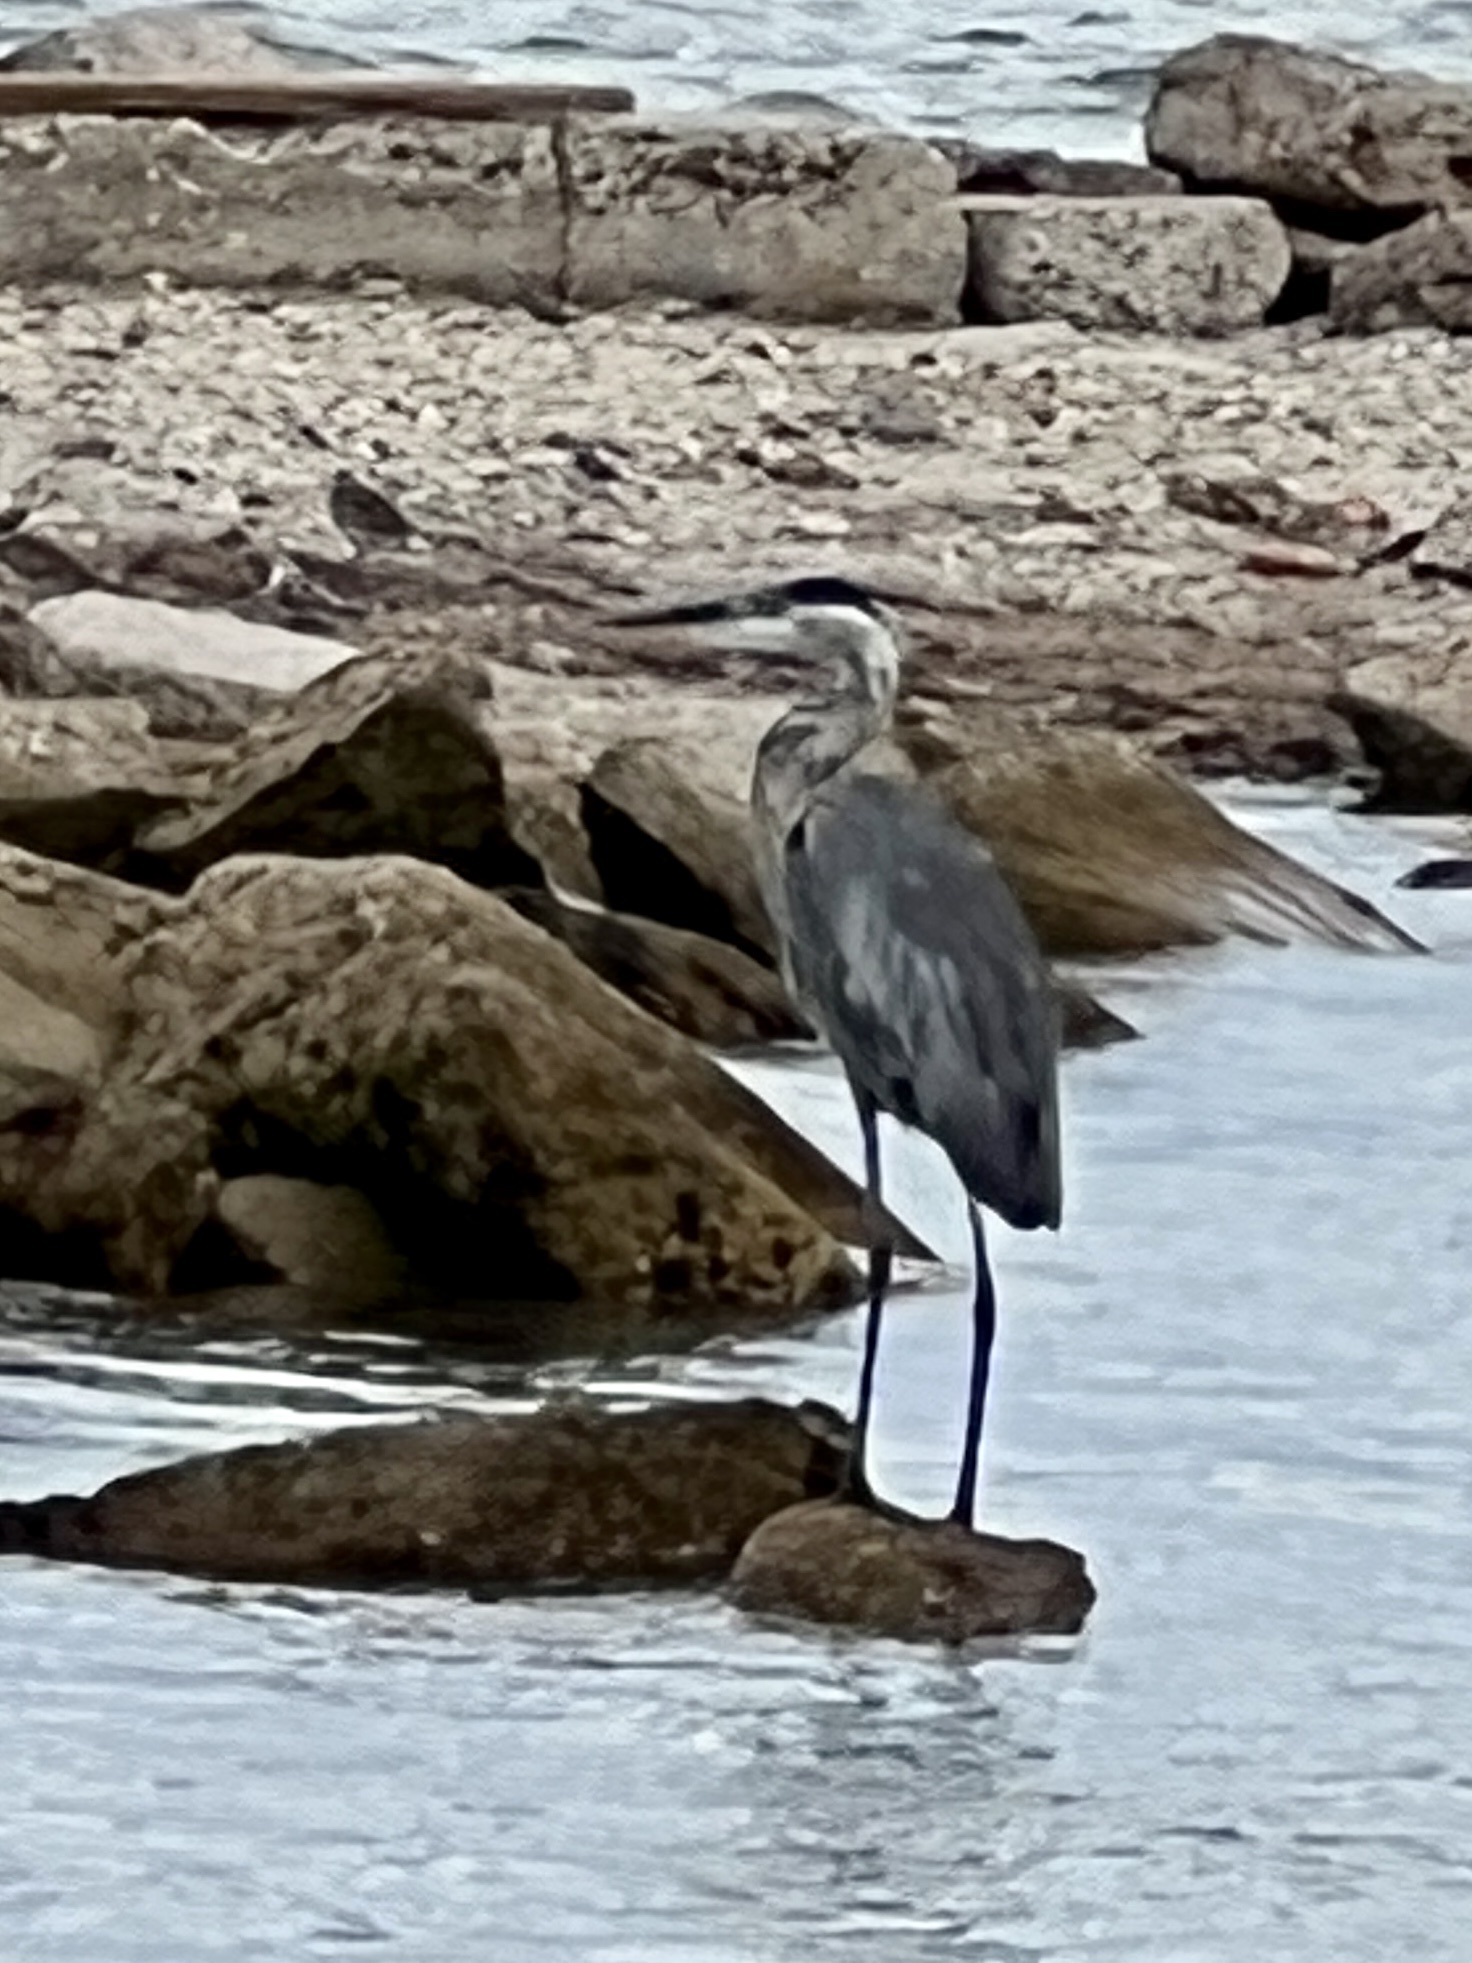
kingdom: Animalia
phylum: Chordata
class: Aves
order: Pelecaniformes
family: Ardeidae
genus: Ardea
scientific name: Ardea herodias
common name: Great blue heron
